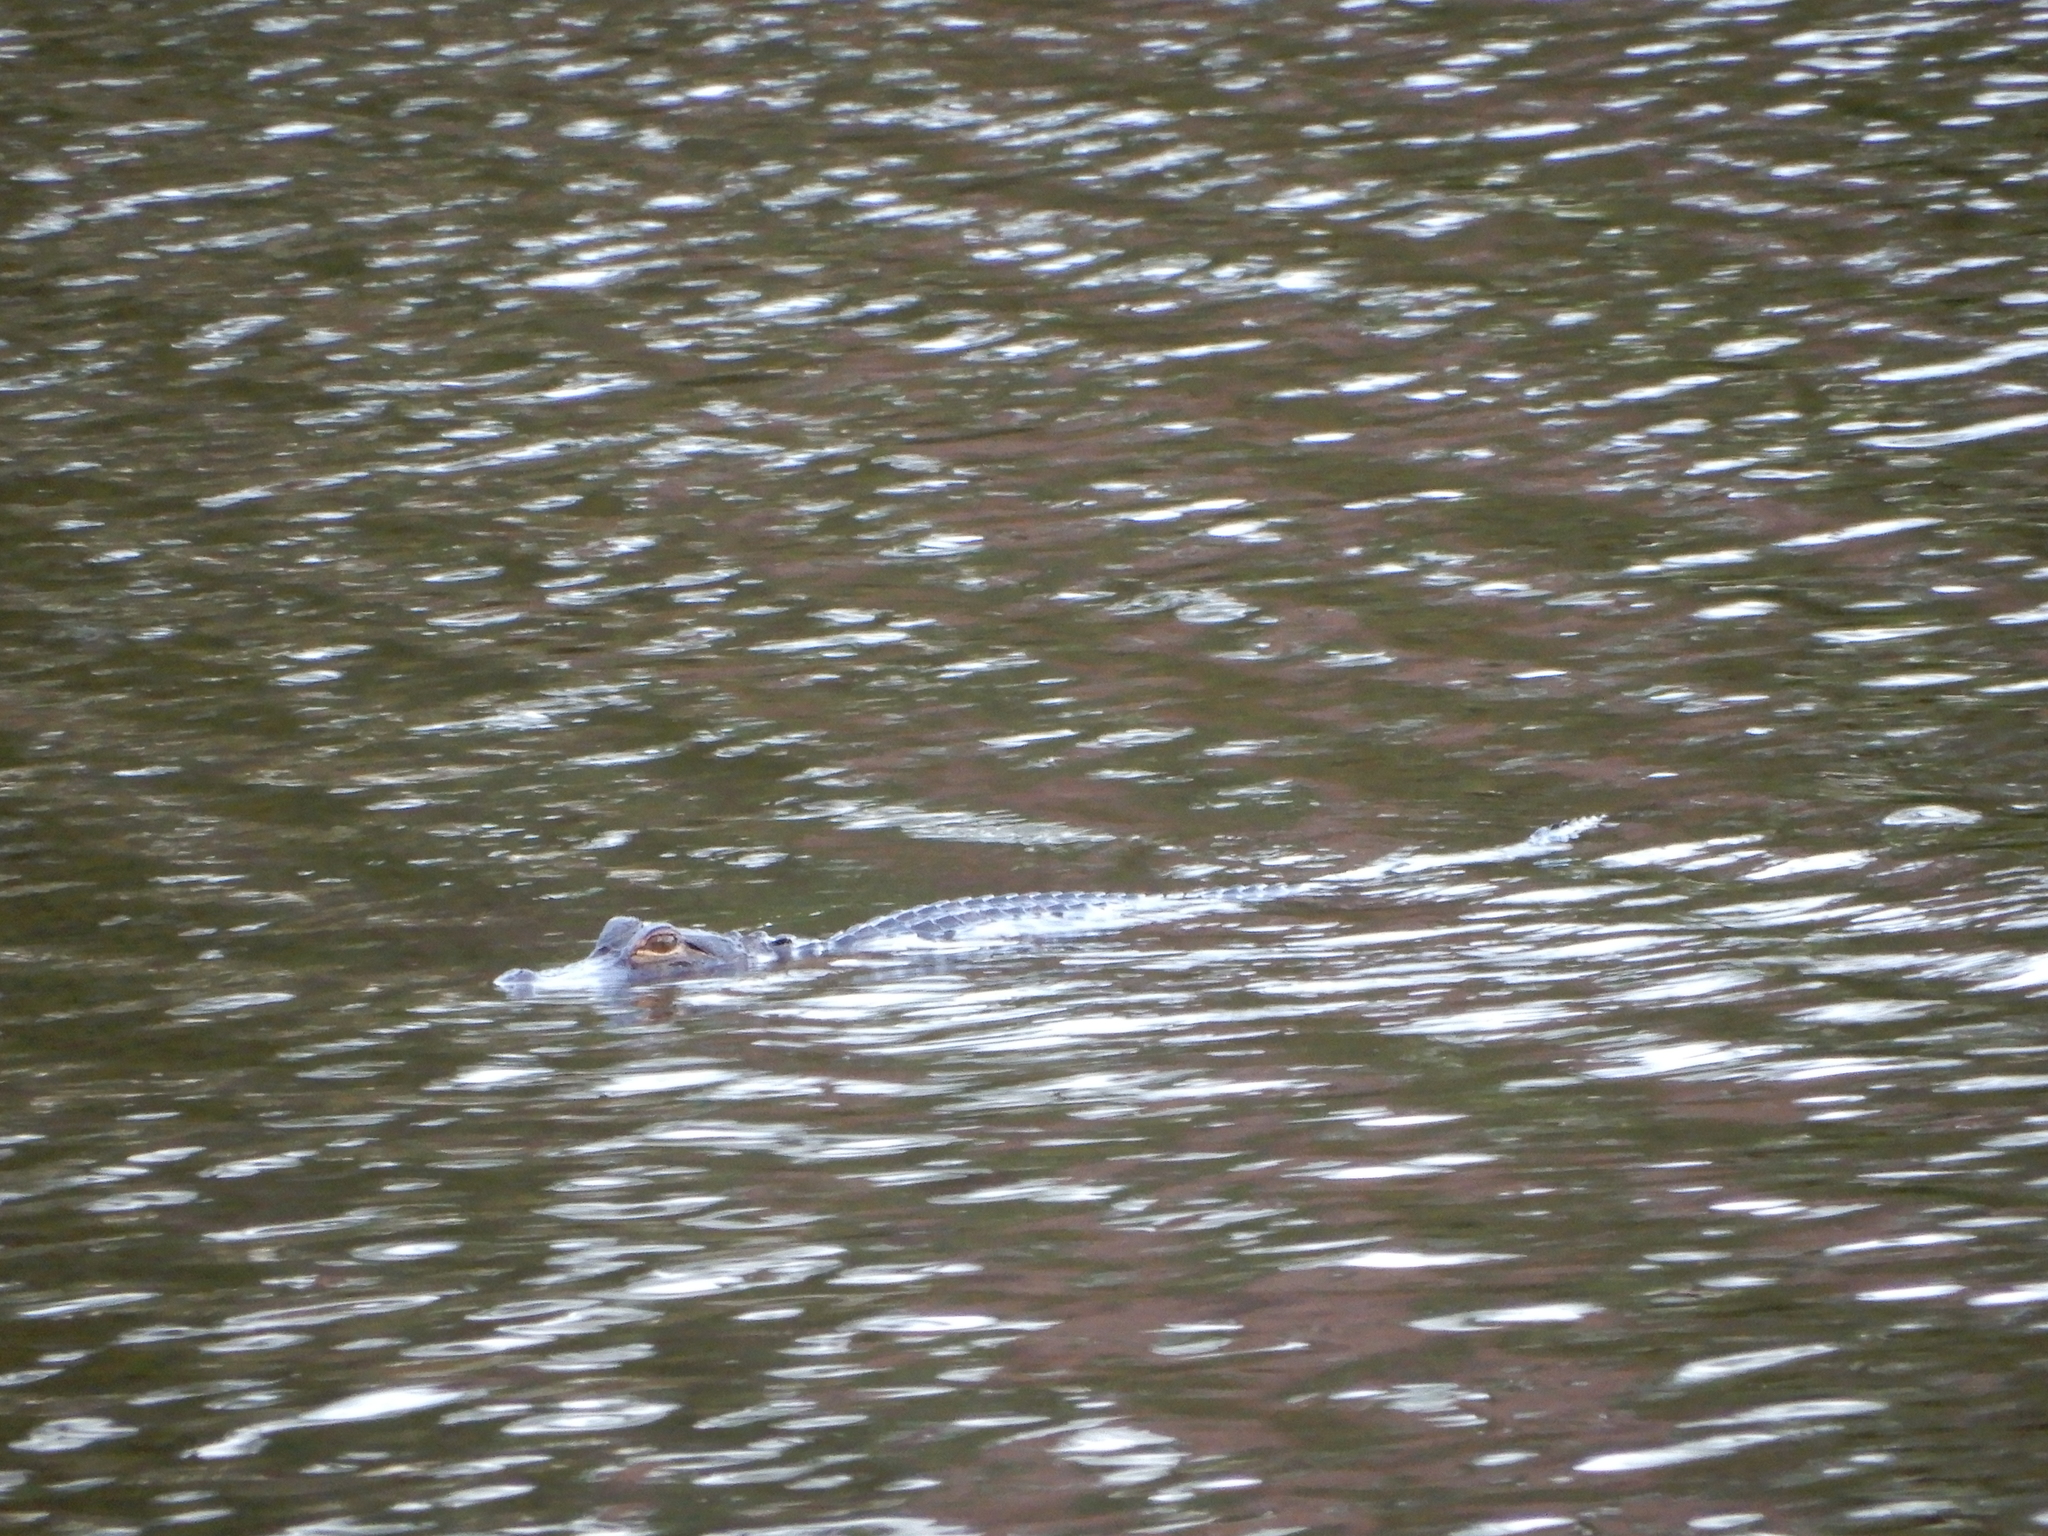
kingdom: Animalia
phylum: Chordata
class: Crocodylia
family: Alligatoridae
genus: Alligator
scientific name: Alligator mississippiensis
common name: American alligator
